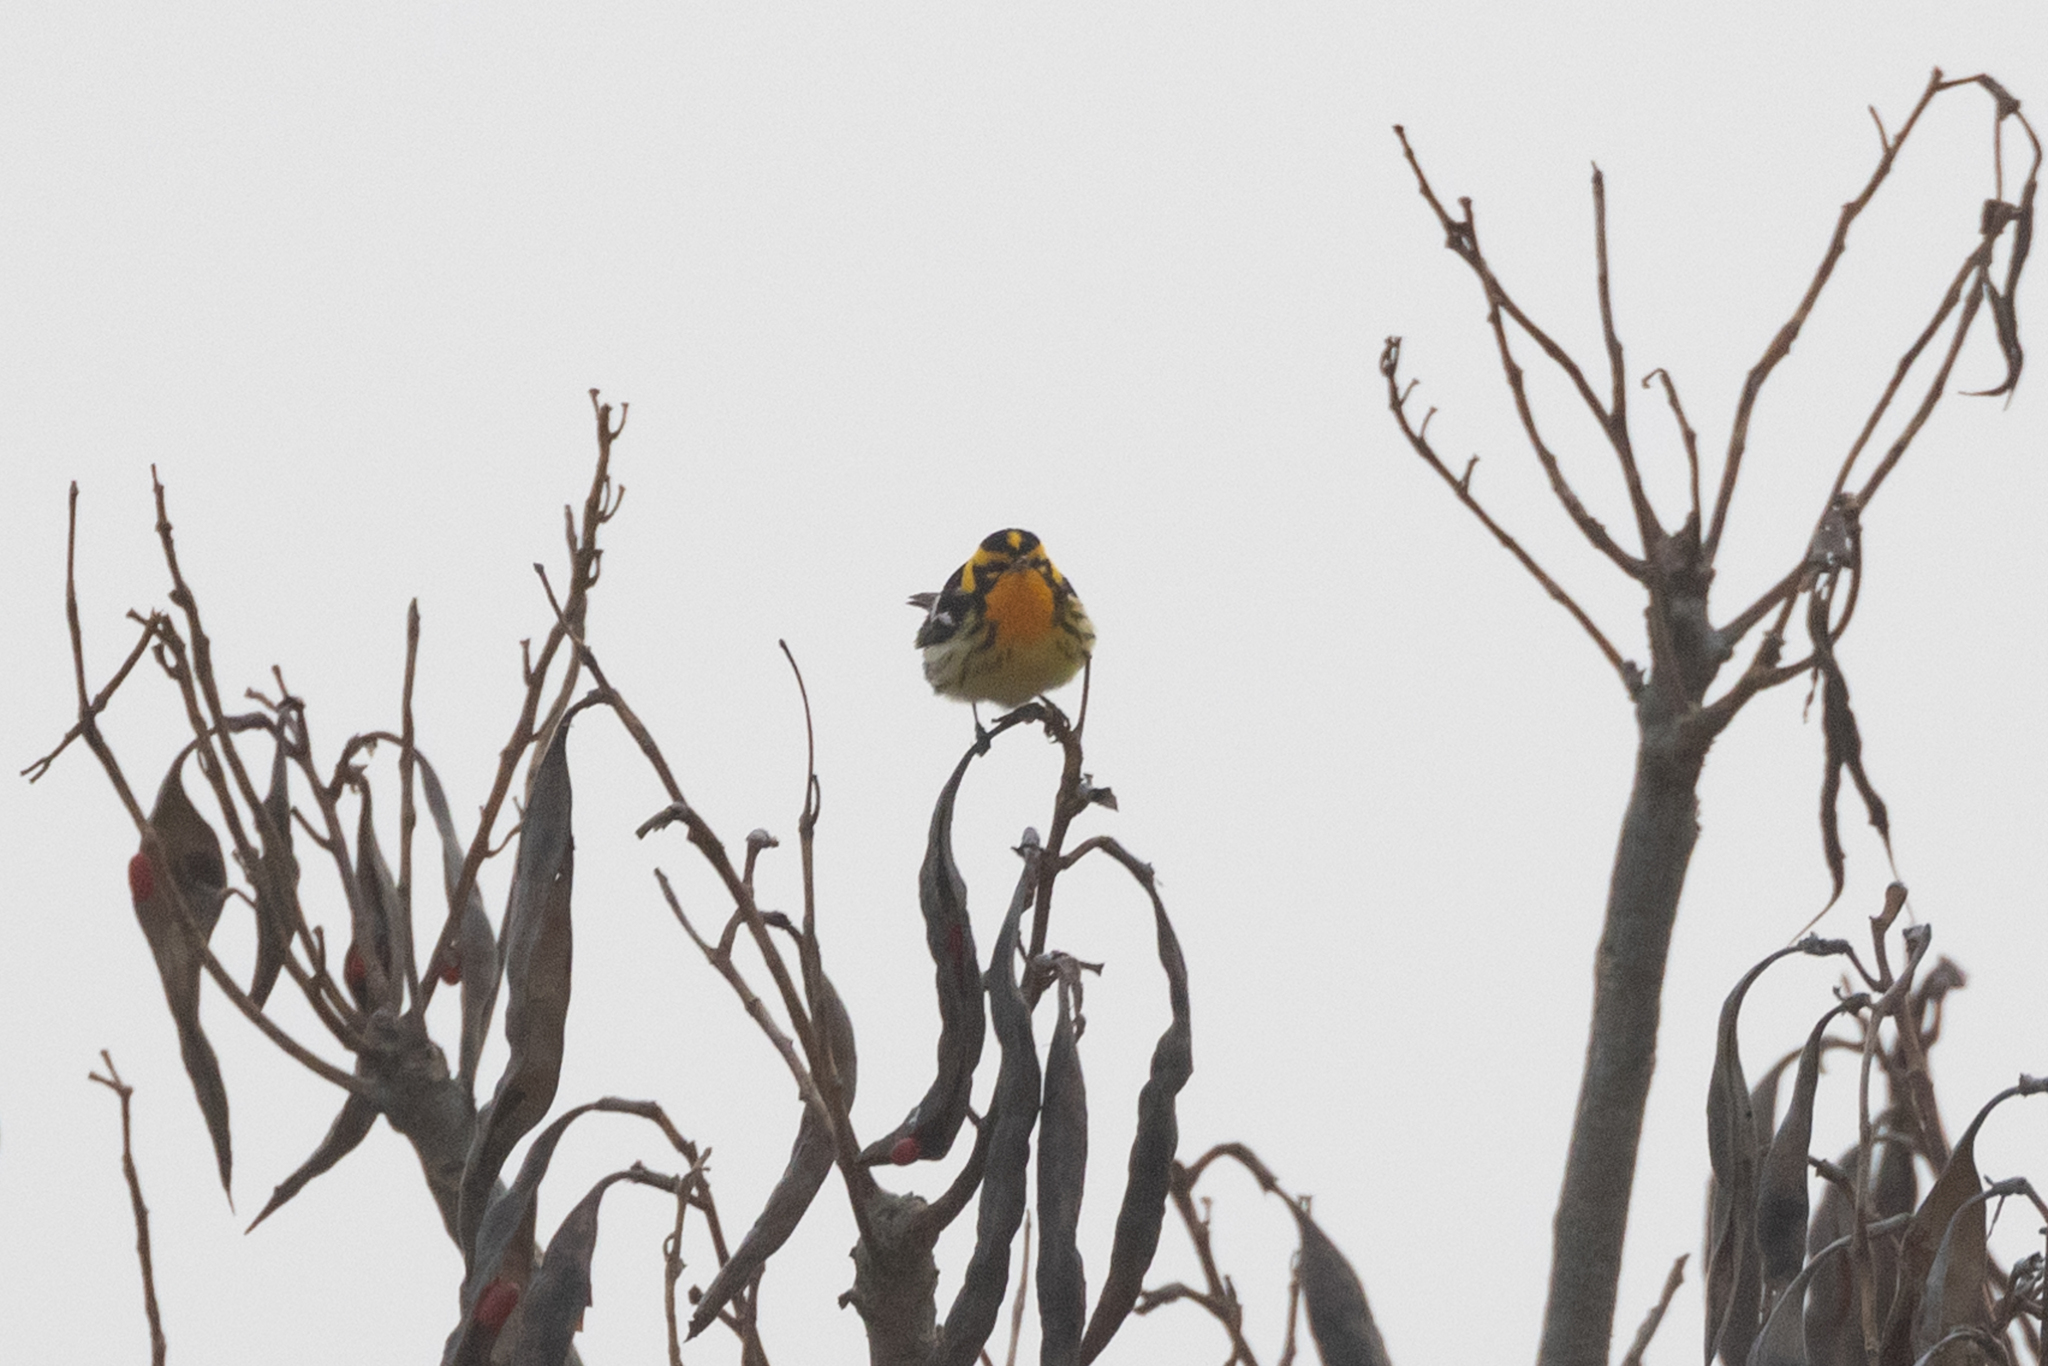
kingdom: Animalia
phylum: Chordata
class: Aves
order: Passeriformes
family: Parulidae
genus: Setophaga
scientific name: Setophaga fusca
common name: Blackburnian warbler
